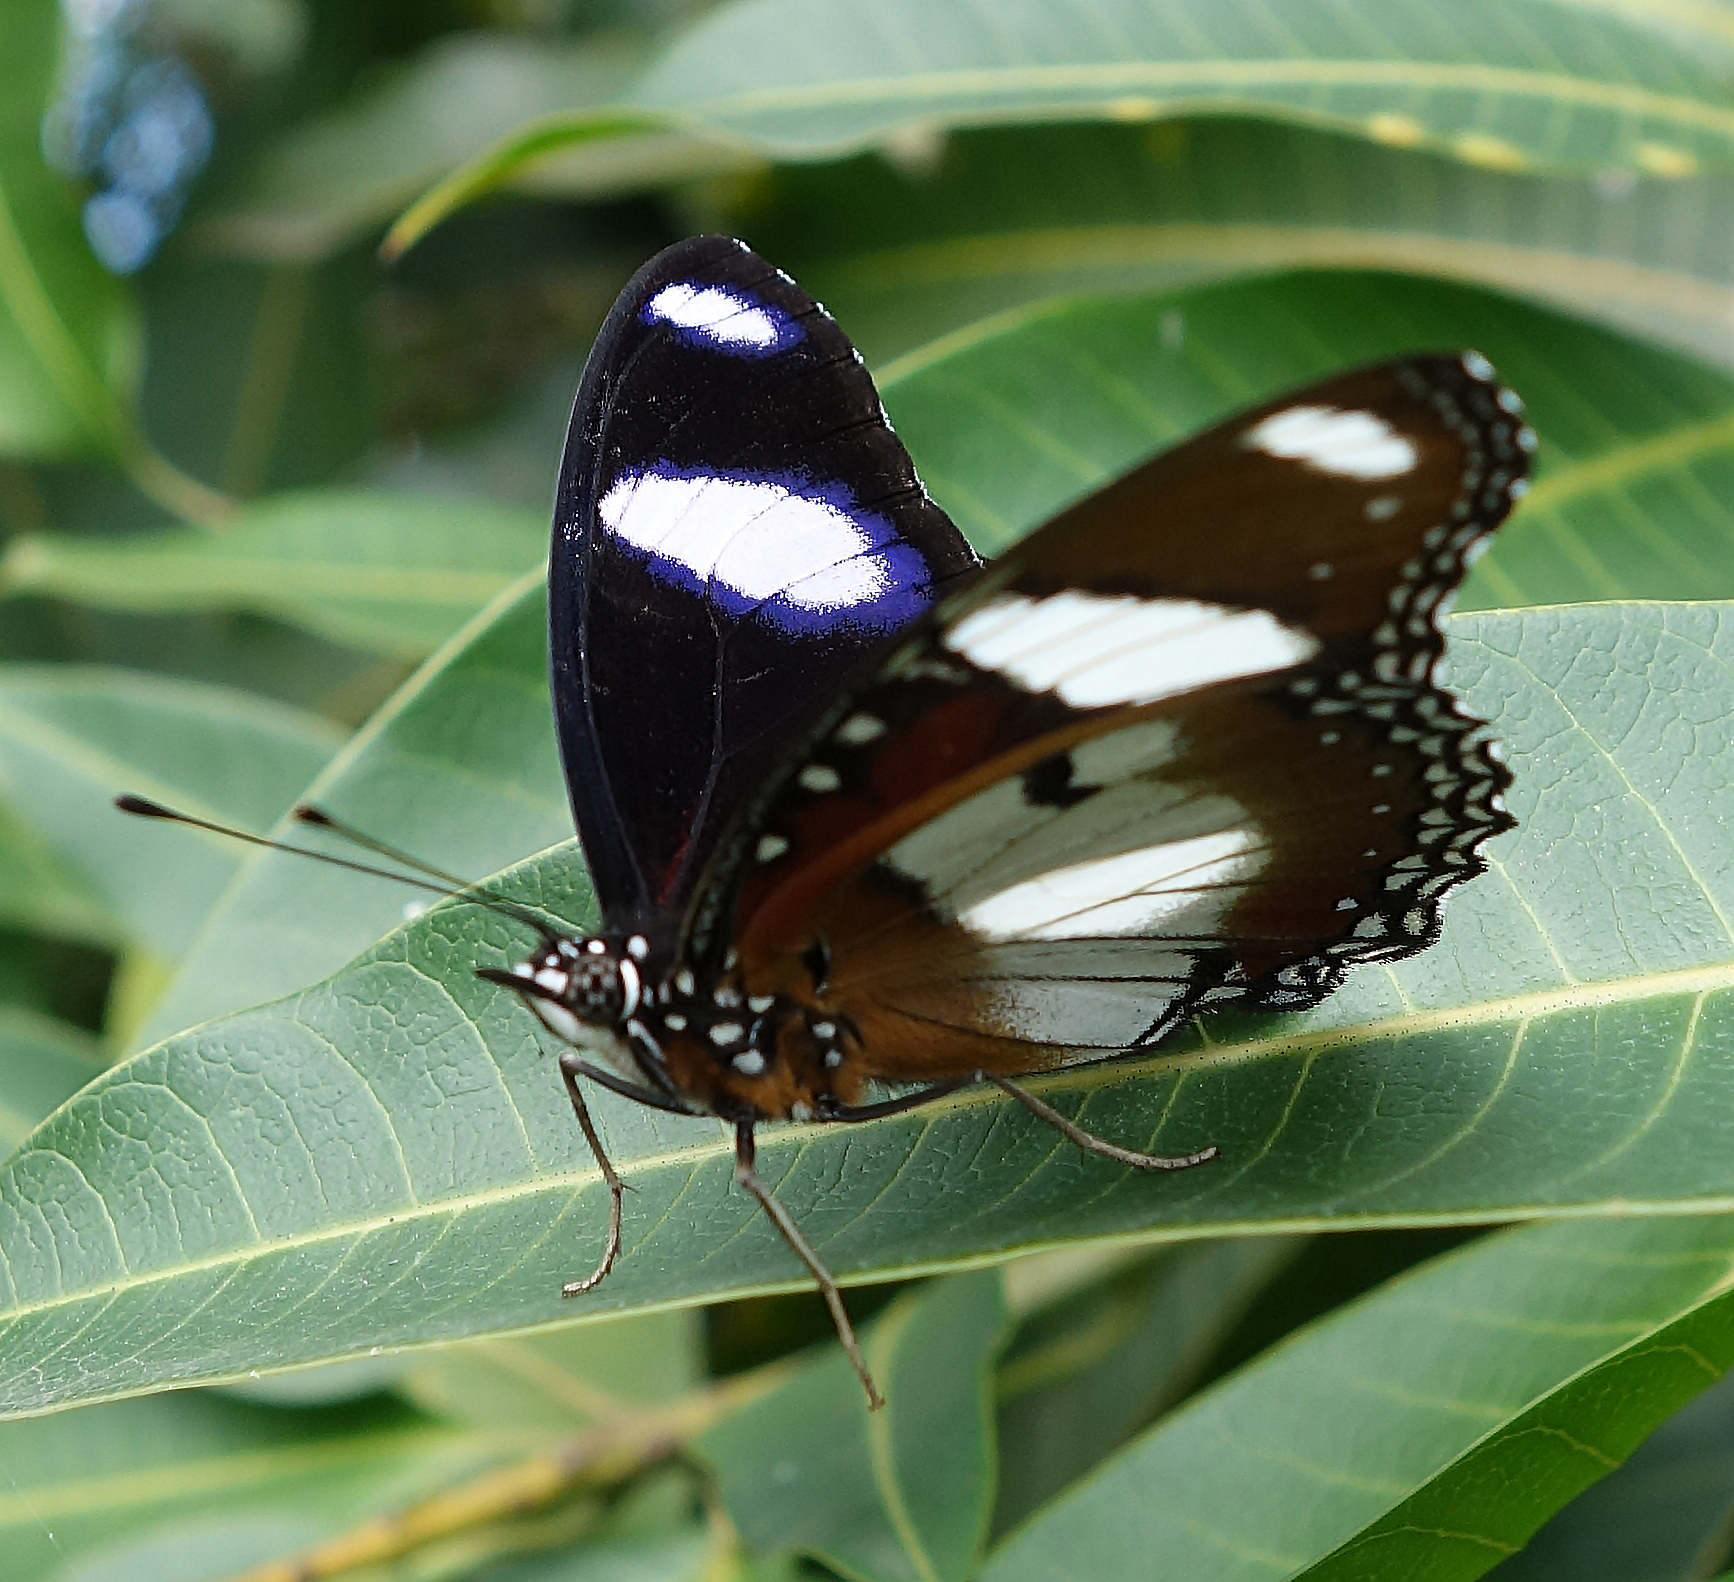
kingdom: Animalia
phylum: Arthropoda
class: Insecta
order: Lepidoptera
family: Nymphalidae
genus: Hypolimnas
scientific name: Hypolimnas misippus
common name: False plain tiger
